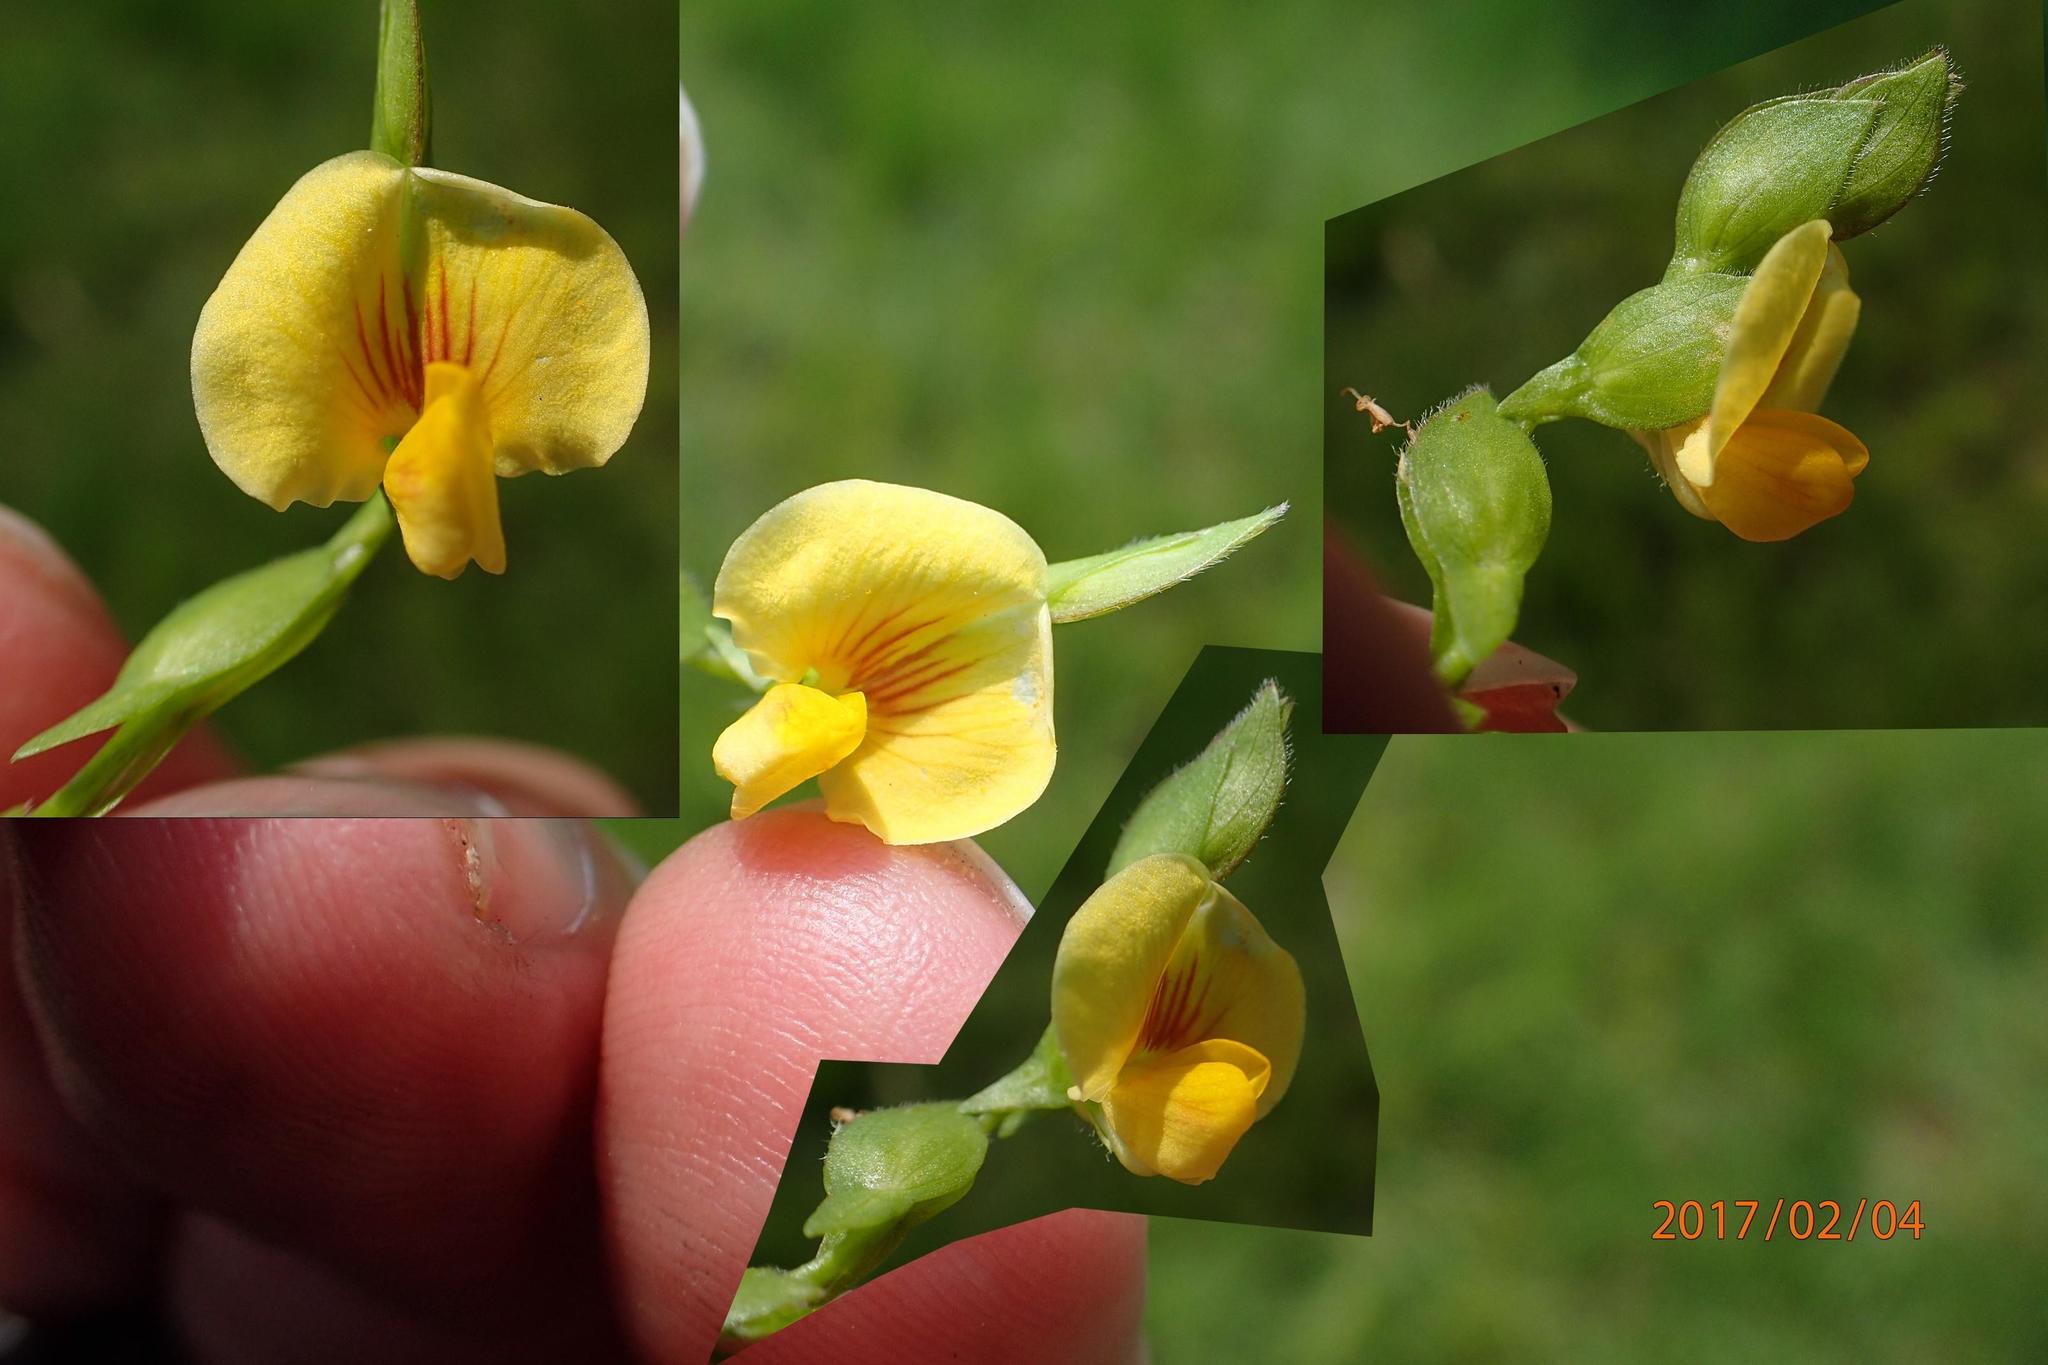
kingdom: Plantae
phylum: Tracheophyta
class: Magnoliopsida
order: Fabales
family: Fabaceae
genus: Zornia
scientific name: Zornia milneana
